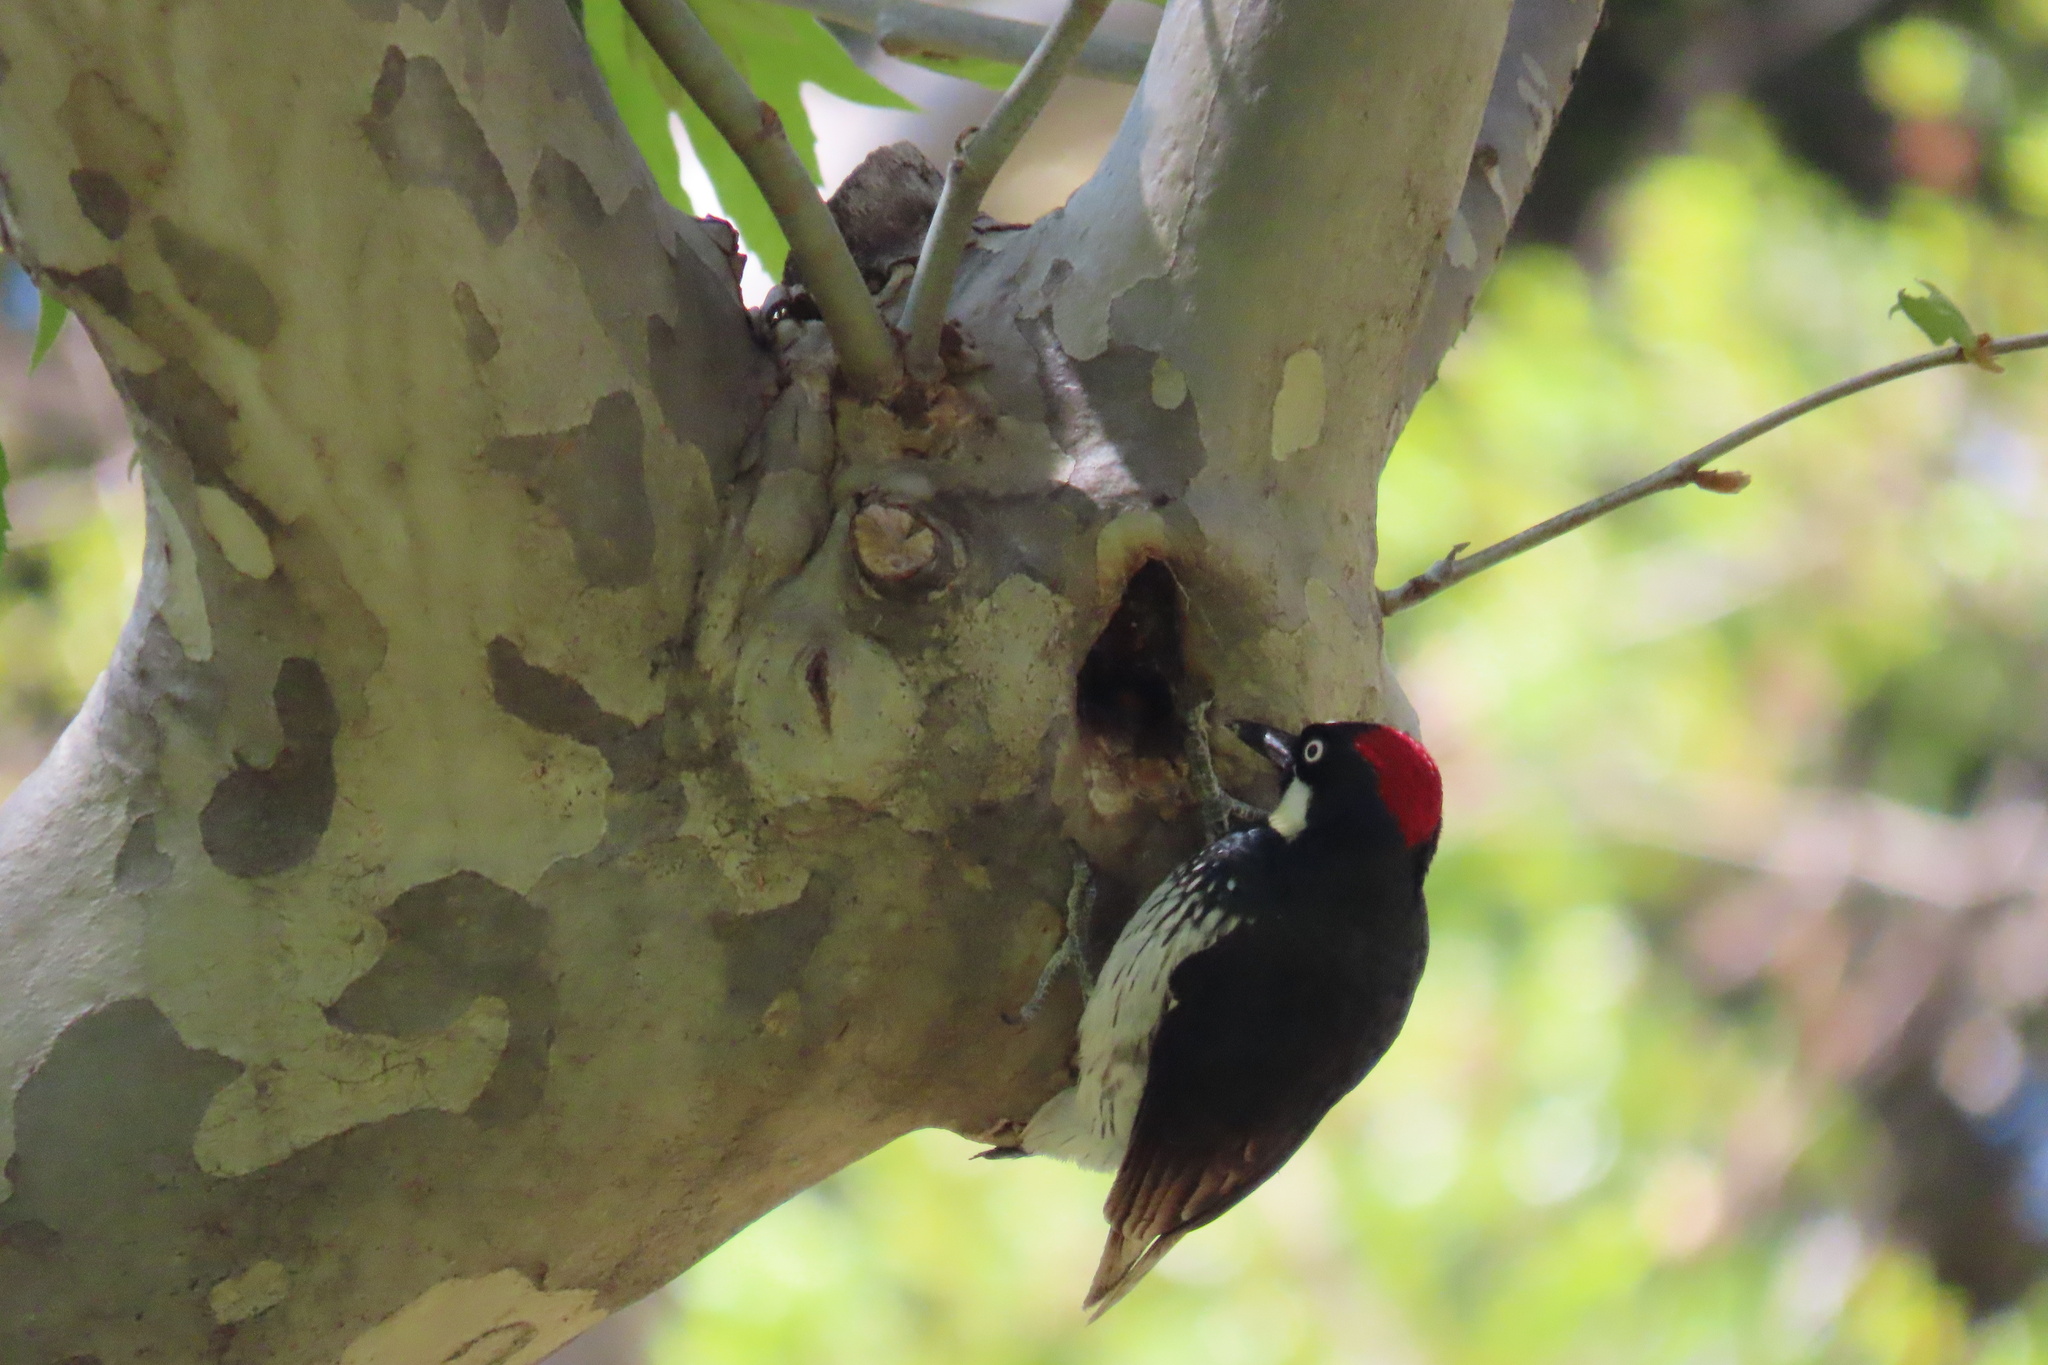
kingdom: Animalia
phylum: Chordata
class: Aves
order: Piciformes
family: Picidae
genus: Melanerpes
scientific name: Melanerpes formicivorus
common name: Acorn woodpecker
